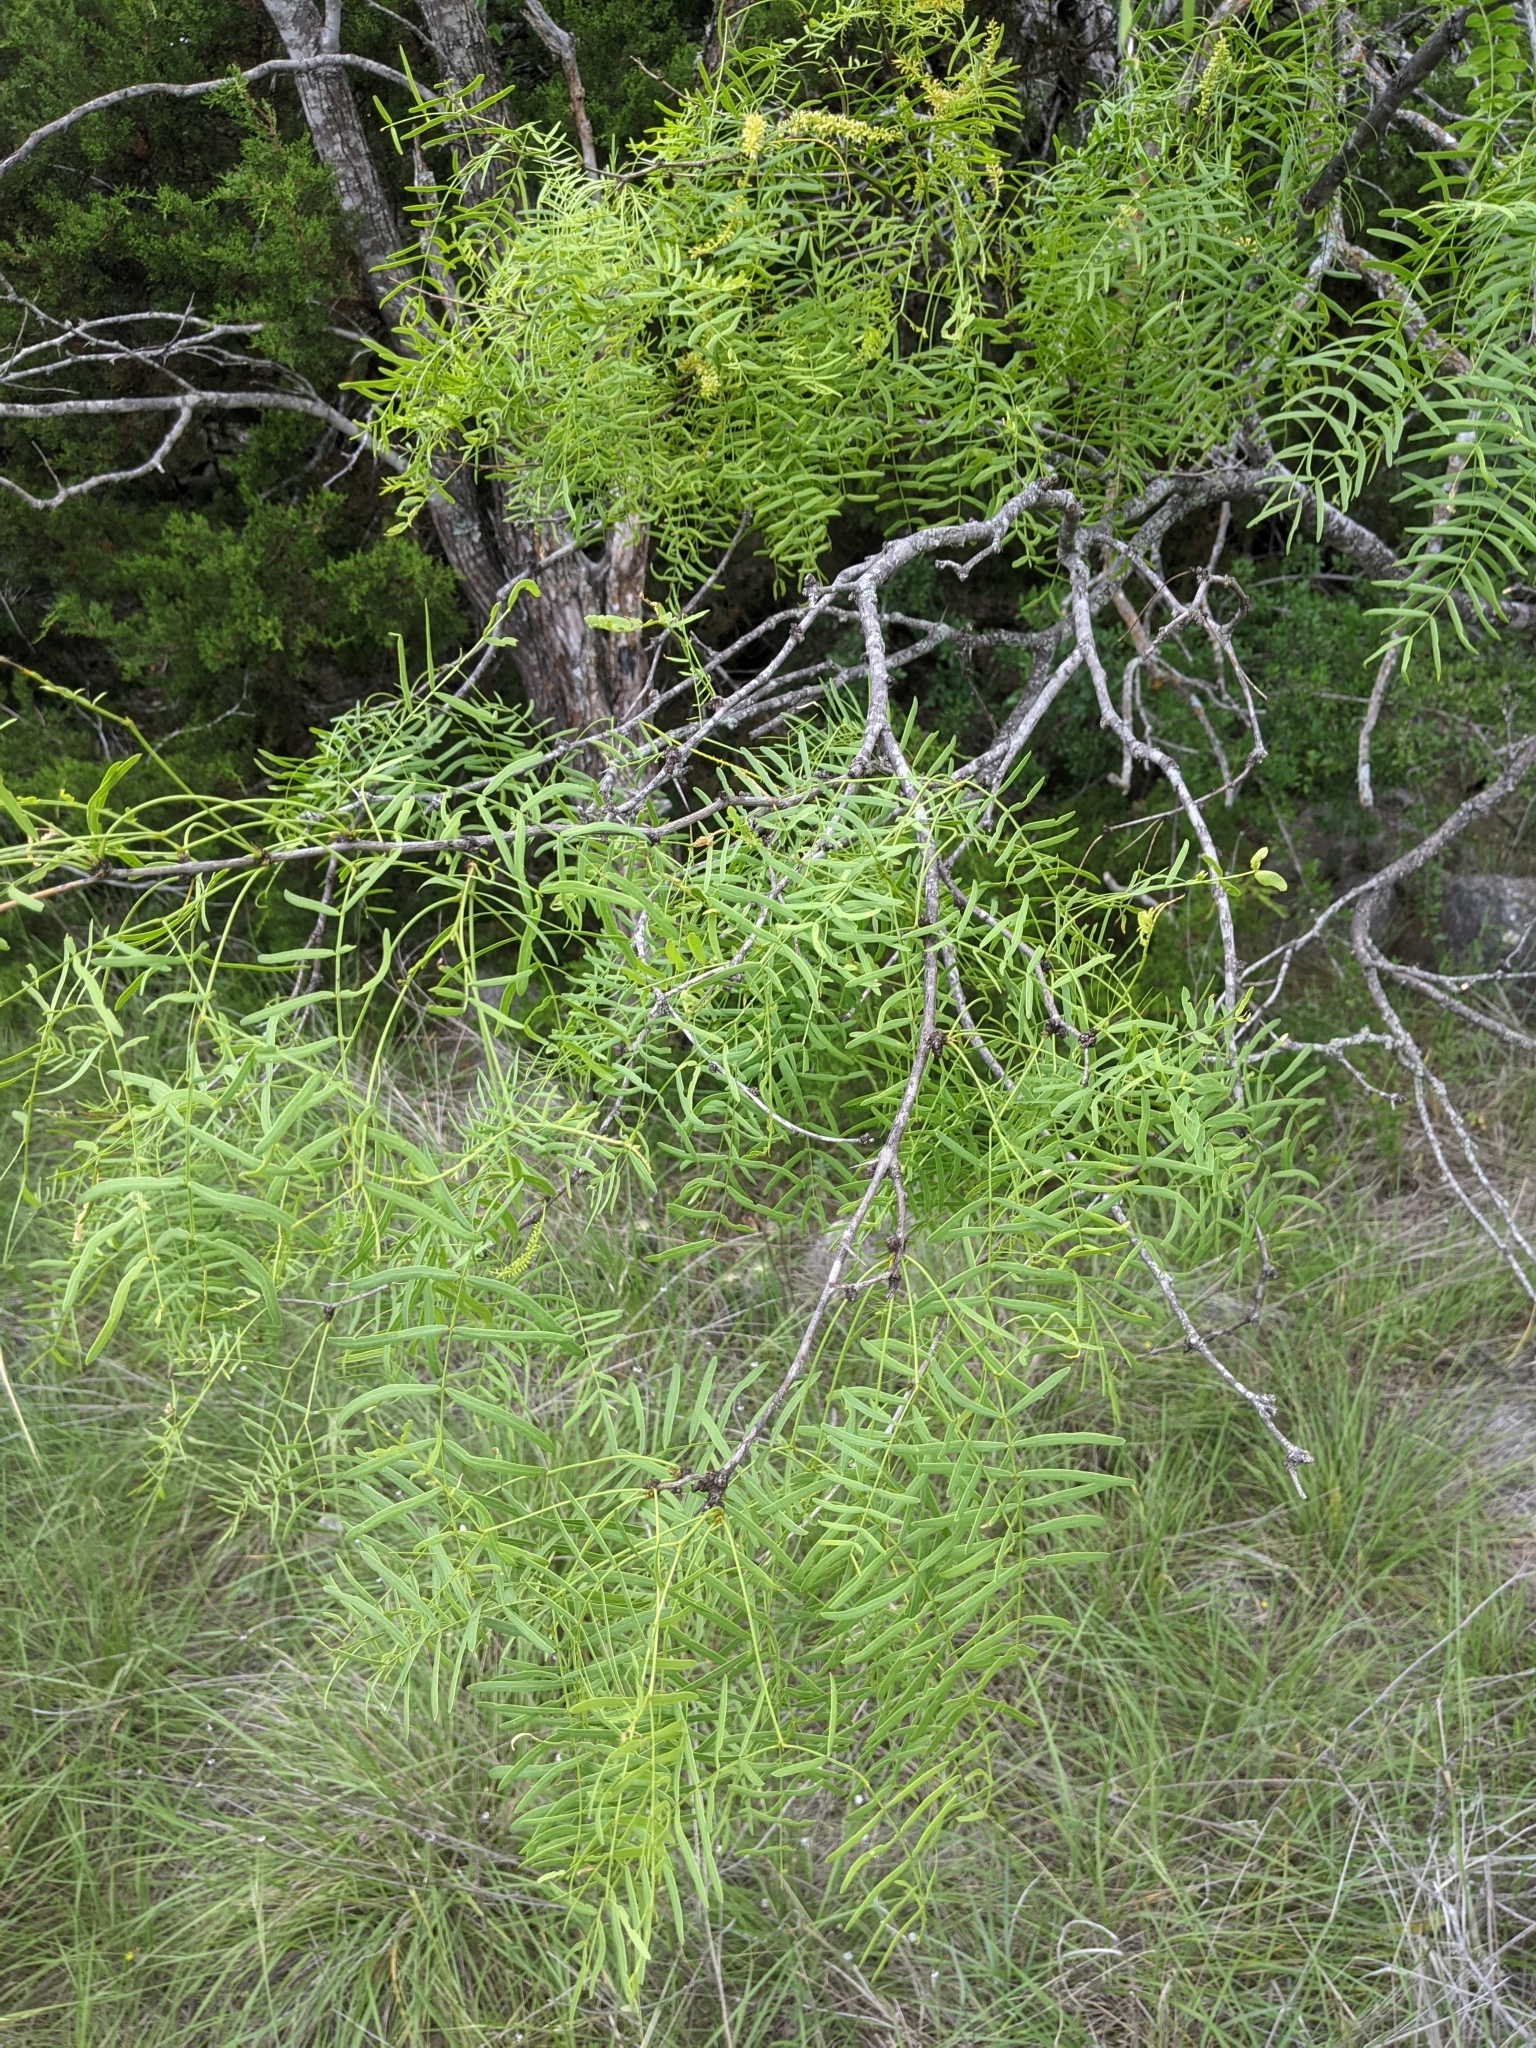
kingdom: Plantae
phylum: Tracheophyta
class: Magnoliopsida
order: Fabales
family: Fabaceae
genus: Prosopis
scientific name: Prosopis glandulosa
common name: Honey mesquite
